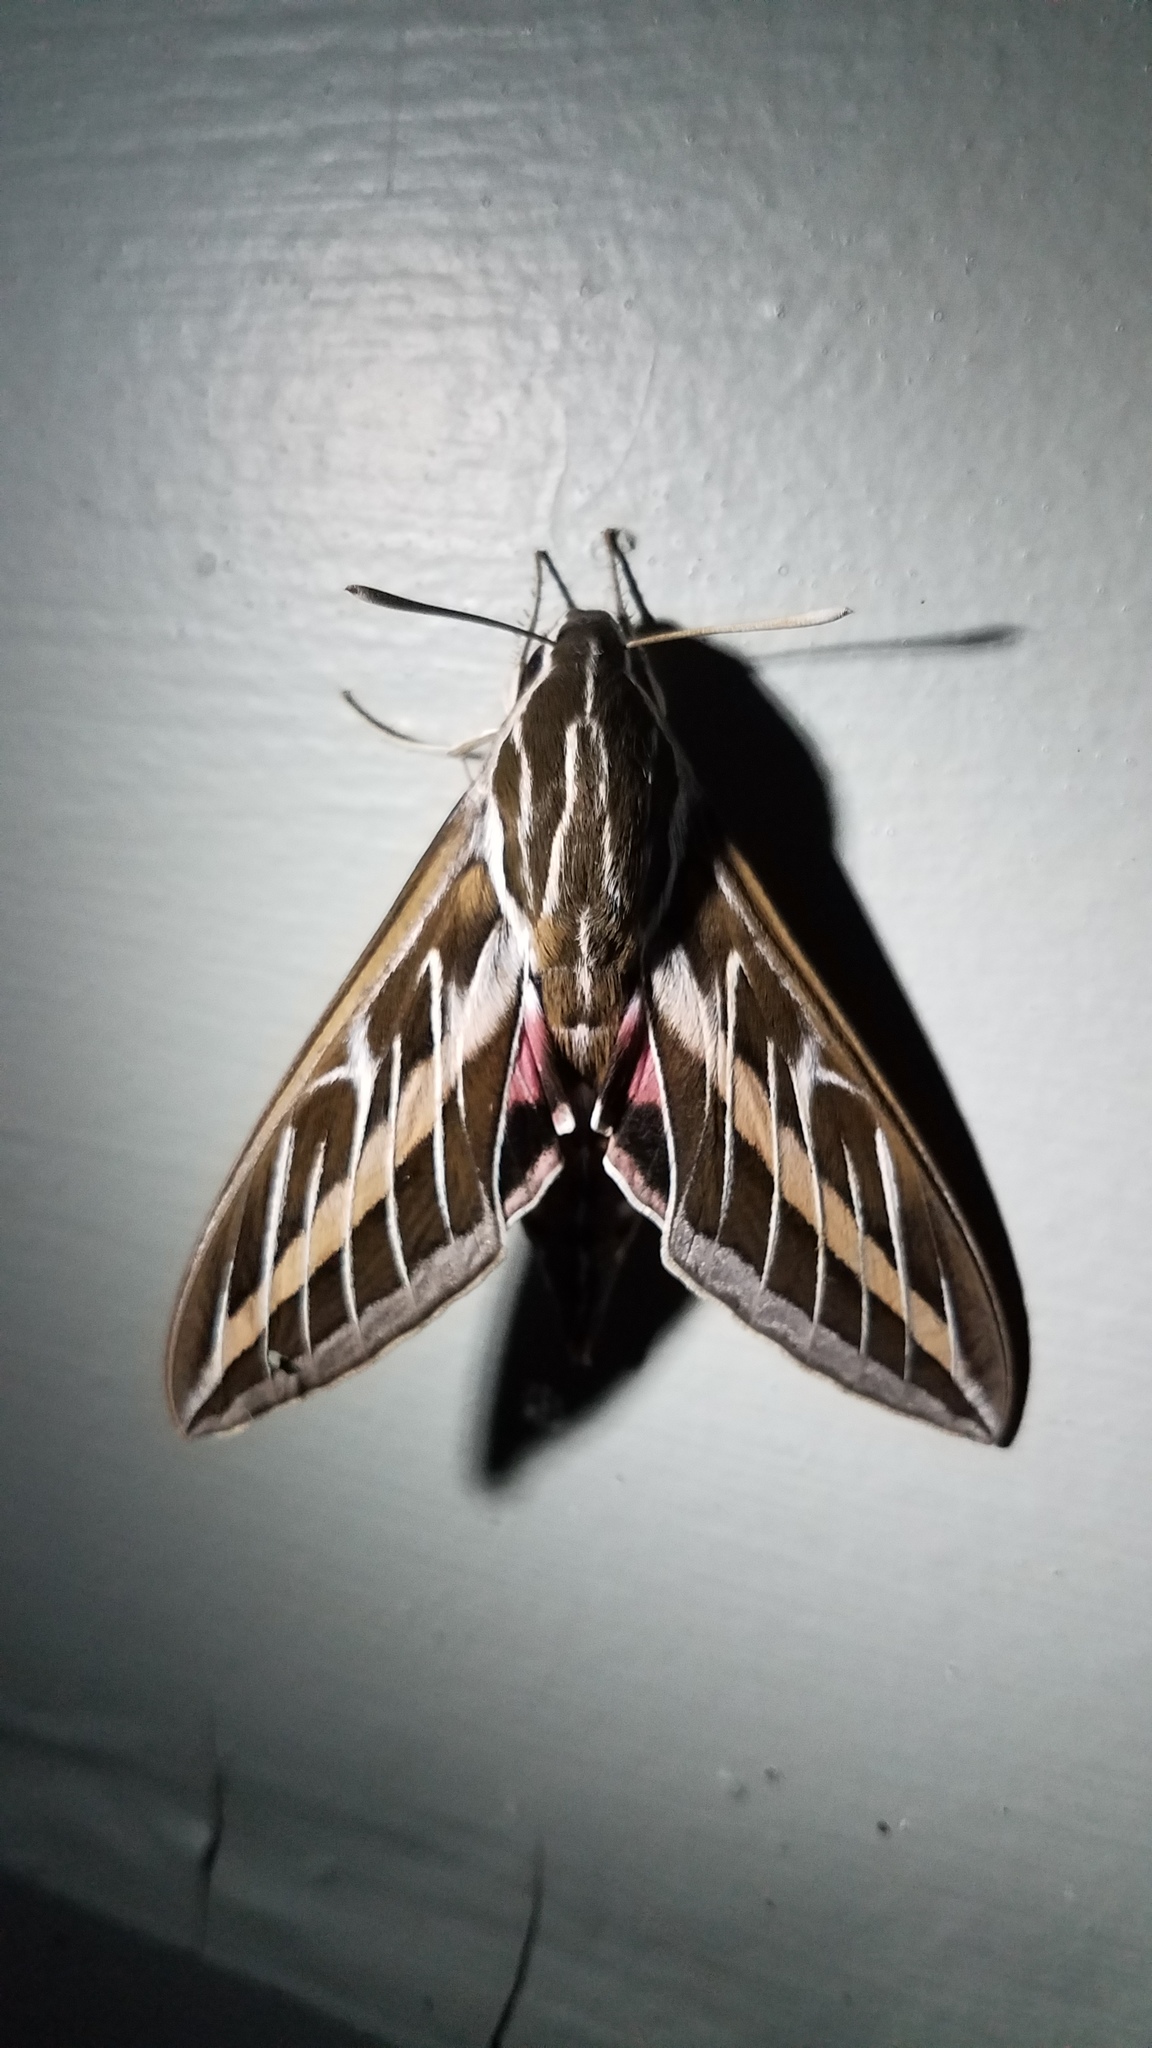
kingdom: Animalia
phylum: Arthropoda
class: Insecta
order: Lepidoptera
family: Sphingidae
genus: Hyles
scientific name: Hyles lineata
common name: White-lined sphinx
